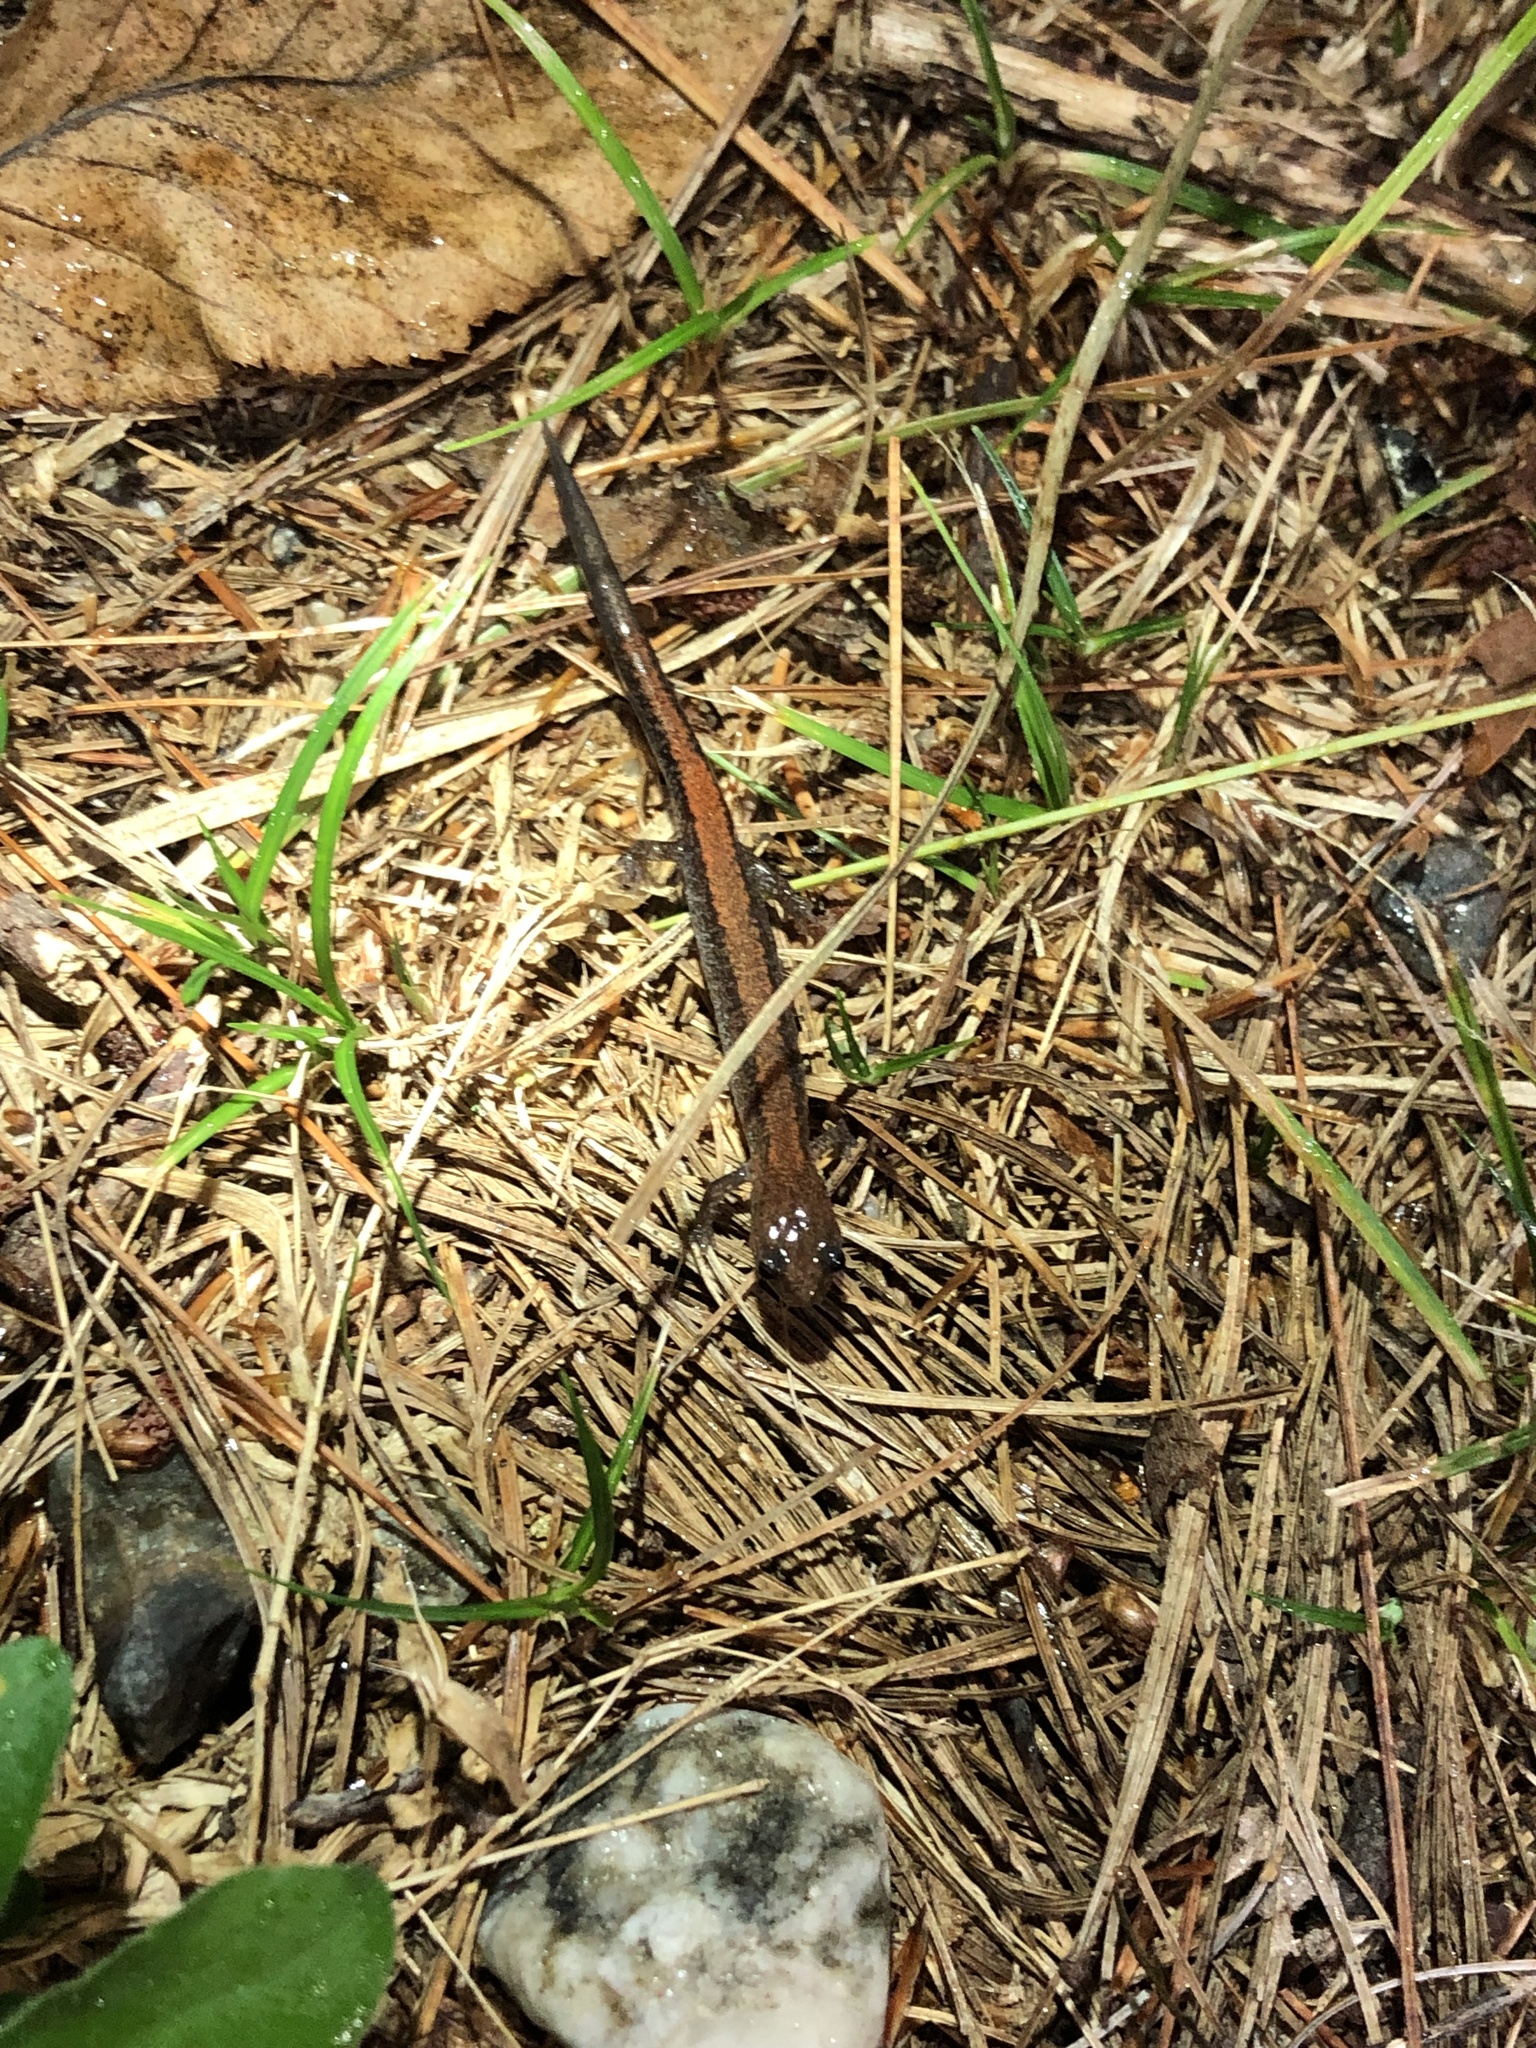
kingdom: Animalia
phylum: Chordata
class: Amphibia
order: Caudata
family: Plethodontidae
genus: Plethodon
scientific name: Plethodon cinereus
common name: Redback salamander
